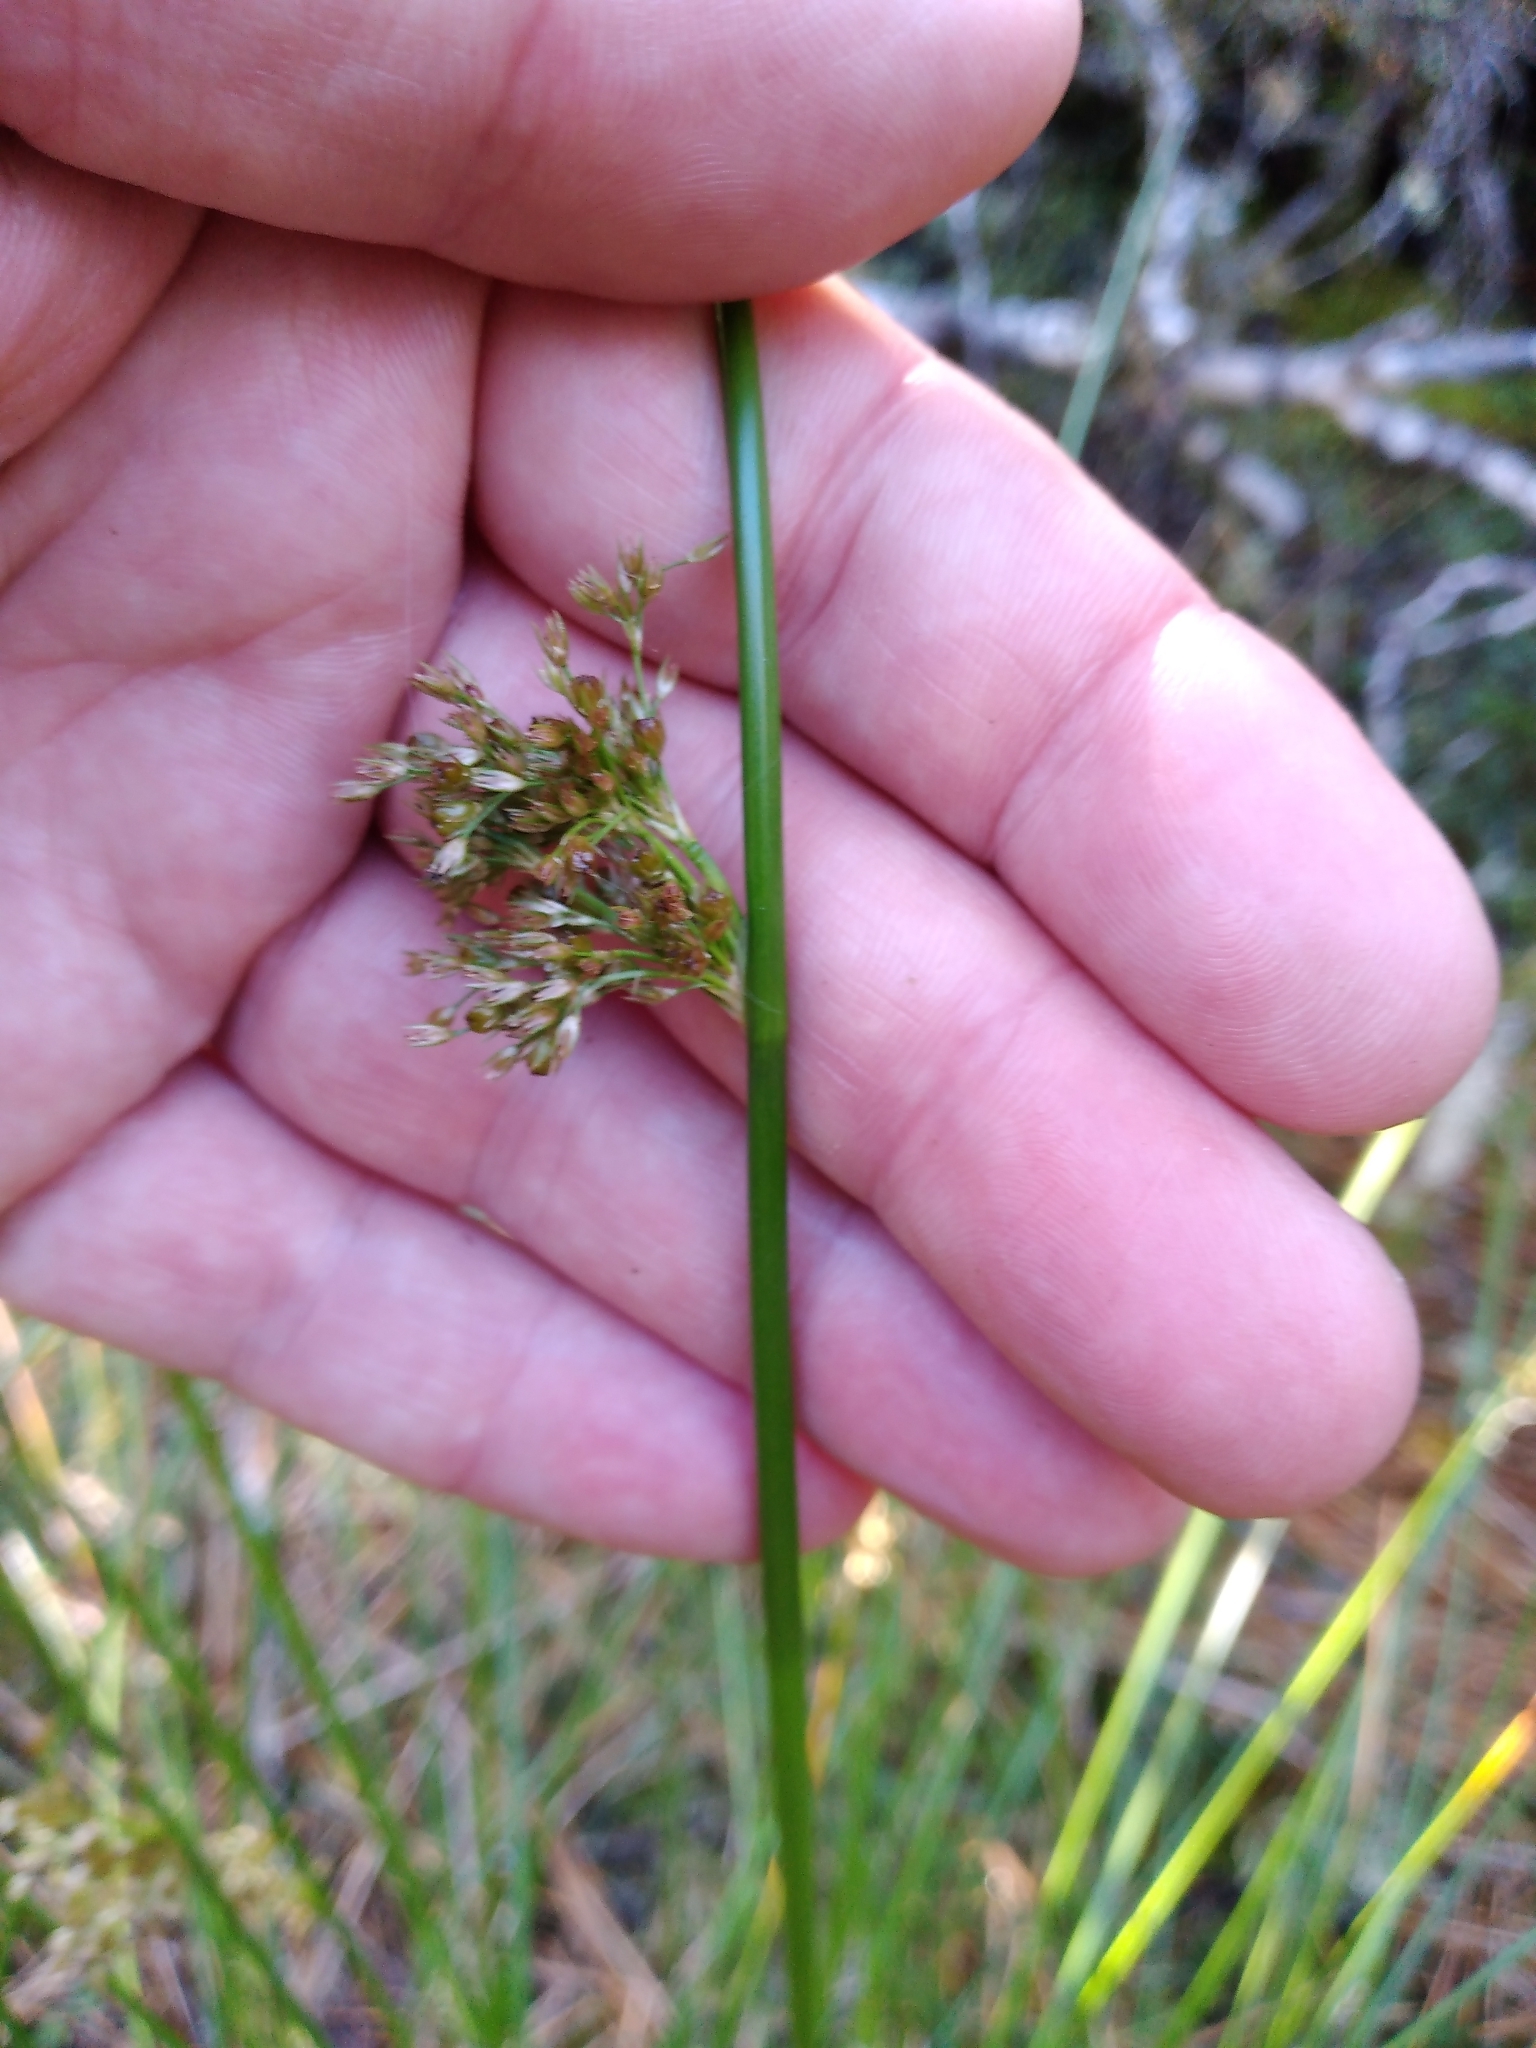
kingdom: Plantae
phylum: Tracheophyta
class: Liliopsida
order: Poales
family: Juncaceae
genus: Juncus
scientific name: Juncus effusus
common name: Soft rush
